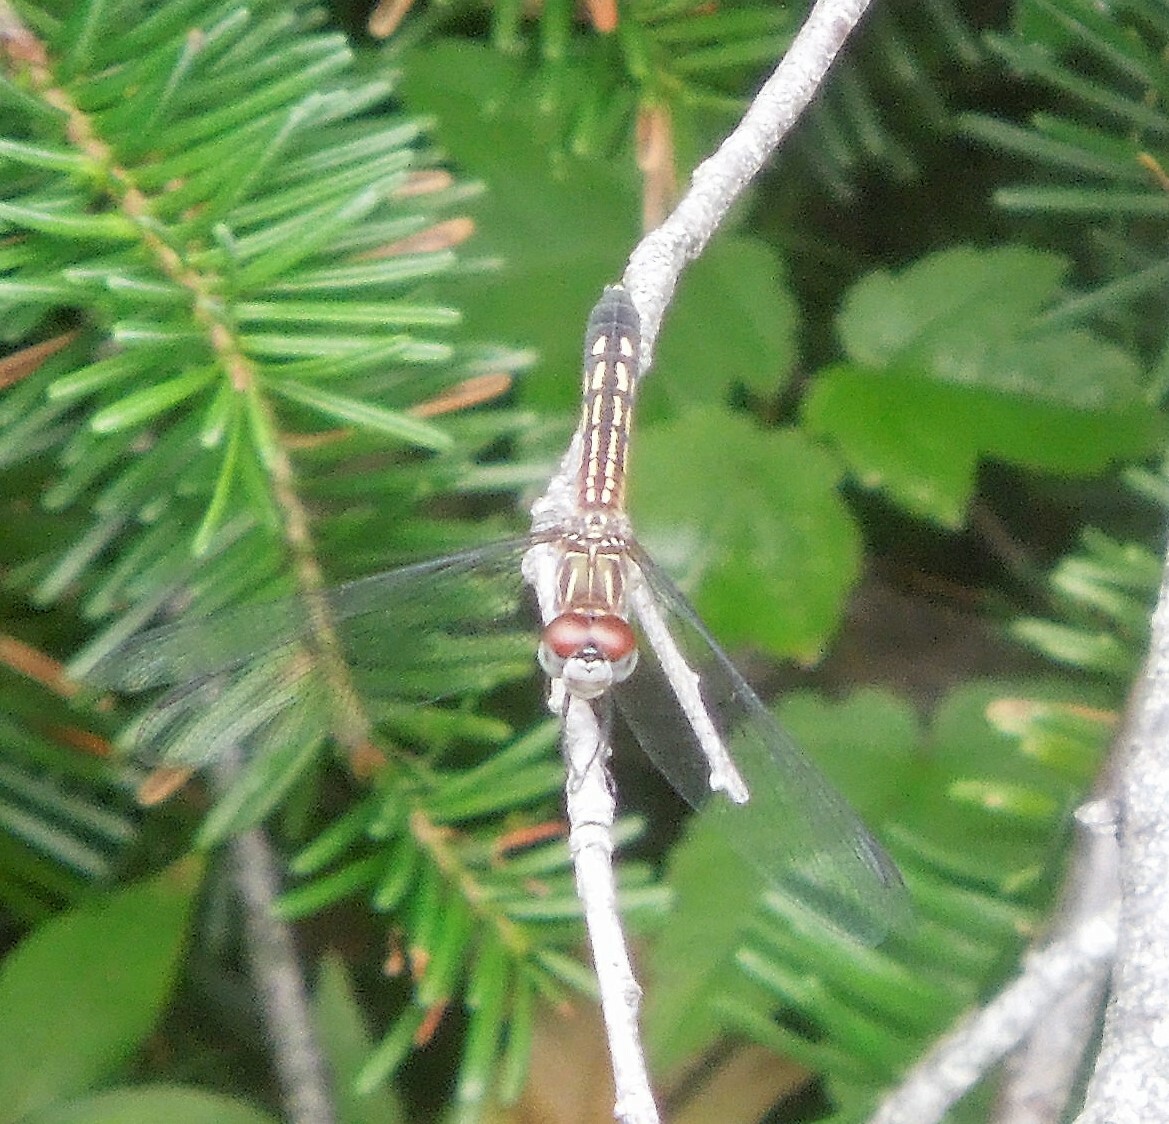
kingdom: Animalia
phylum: Arthropoda
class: Insecta
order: Odonata
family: Libellulidae
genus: Pachydiplax
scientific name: Pachydiplax longipennis
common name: Blue dasher
